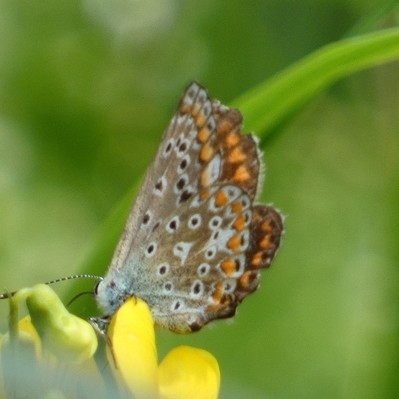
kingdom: Animalia
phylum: Arthropoda
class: Insecta
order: Lepidoptera
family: Lycaenidae
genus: Polyommatus
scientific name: Polyommatus icarus
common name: Common blue
